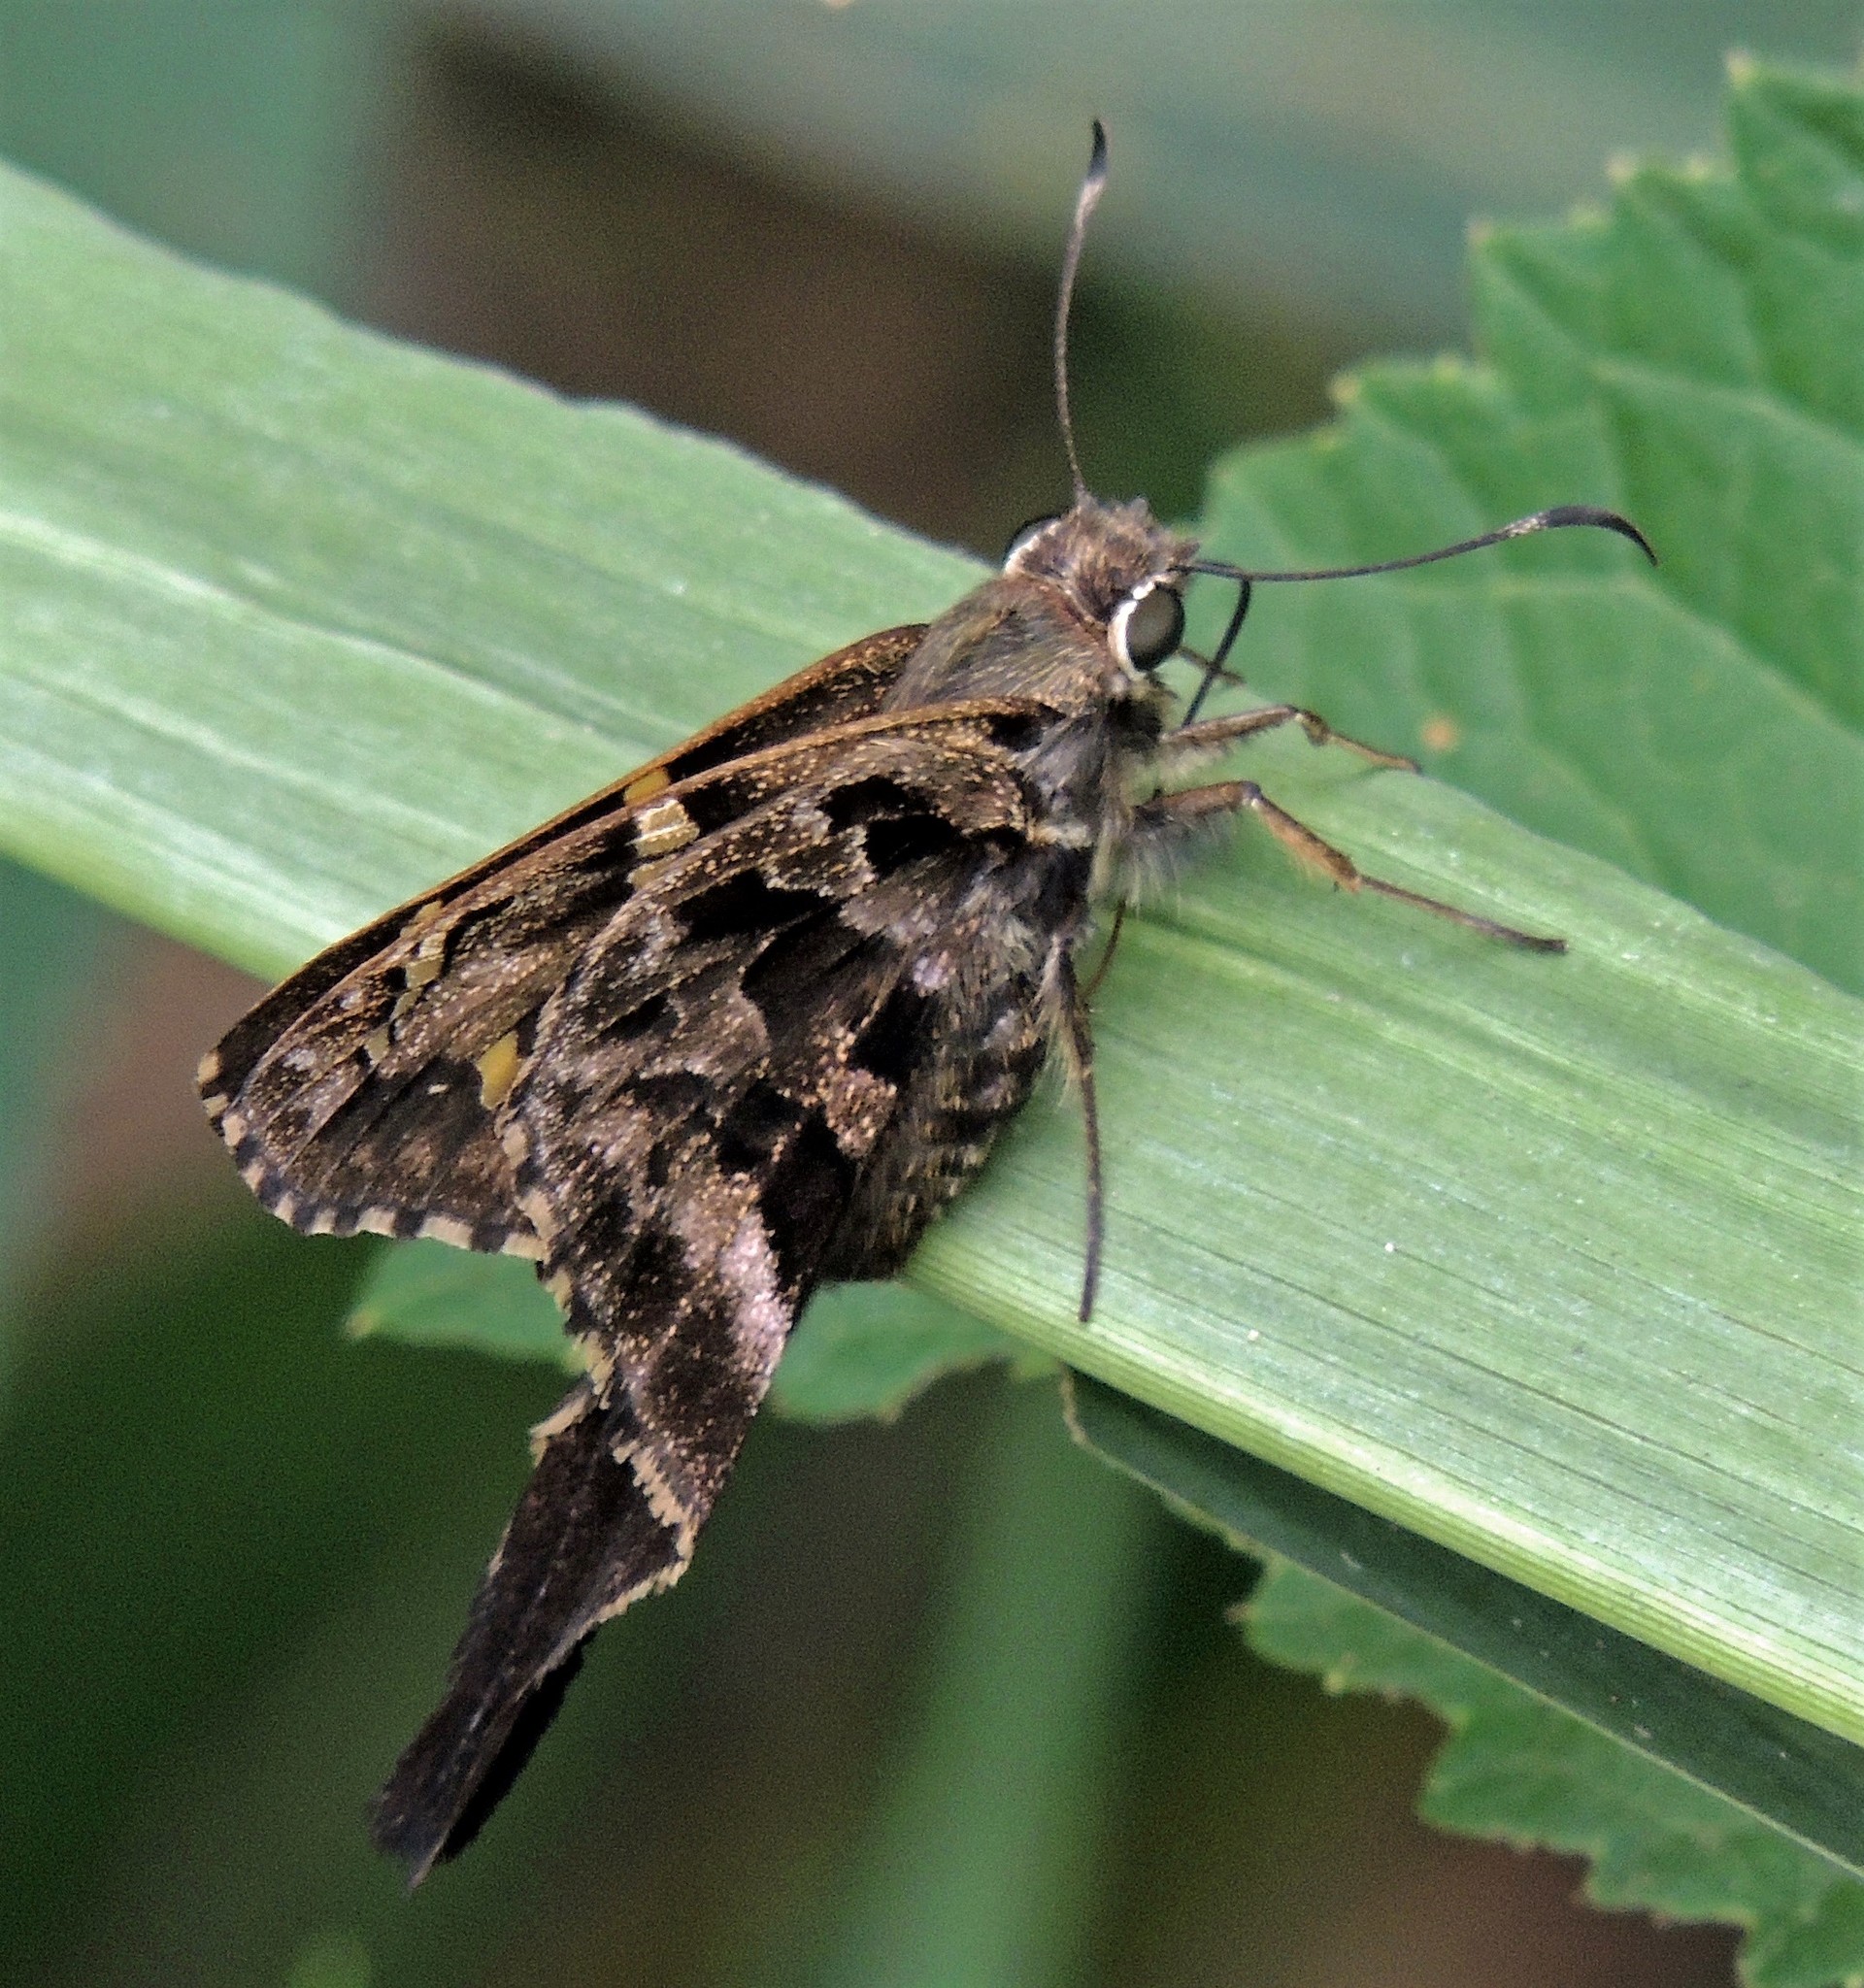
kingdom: Animalia
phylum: Arthropoda
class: Insecta
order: Lepidoptera
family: Hesperiidae
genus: Codatractus
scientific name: Codatractus aminias
